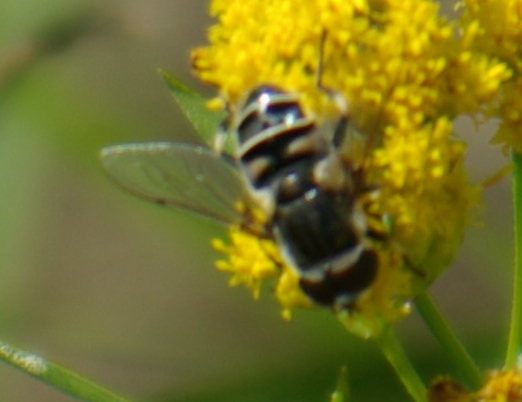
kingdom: Animalia
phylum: Arthropoda
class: Insecta
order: Diptera
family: Syrphidae
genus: Eristalis
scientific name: Eristalis dimidiata
